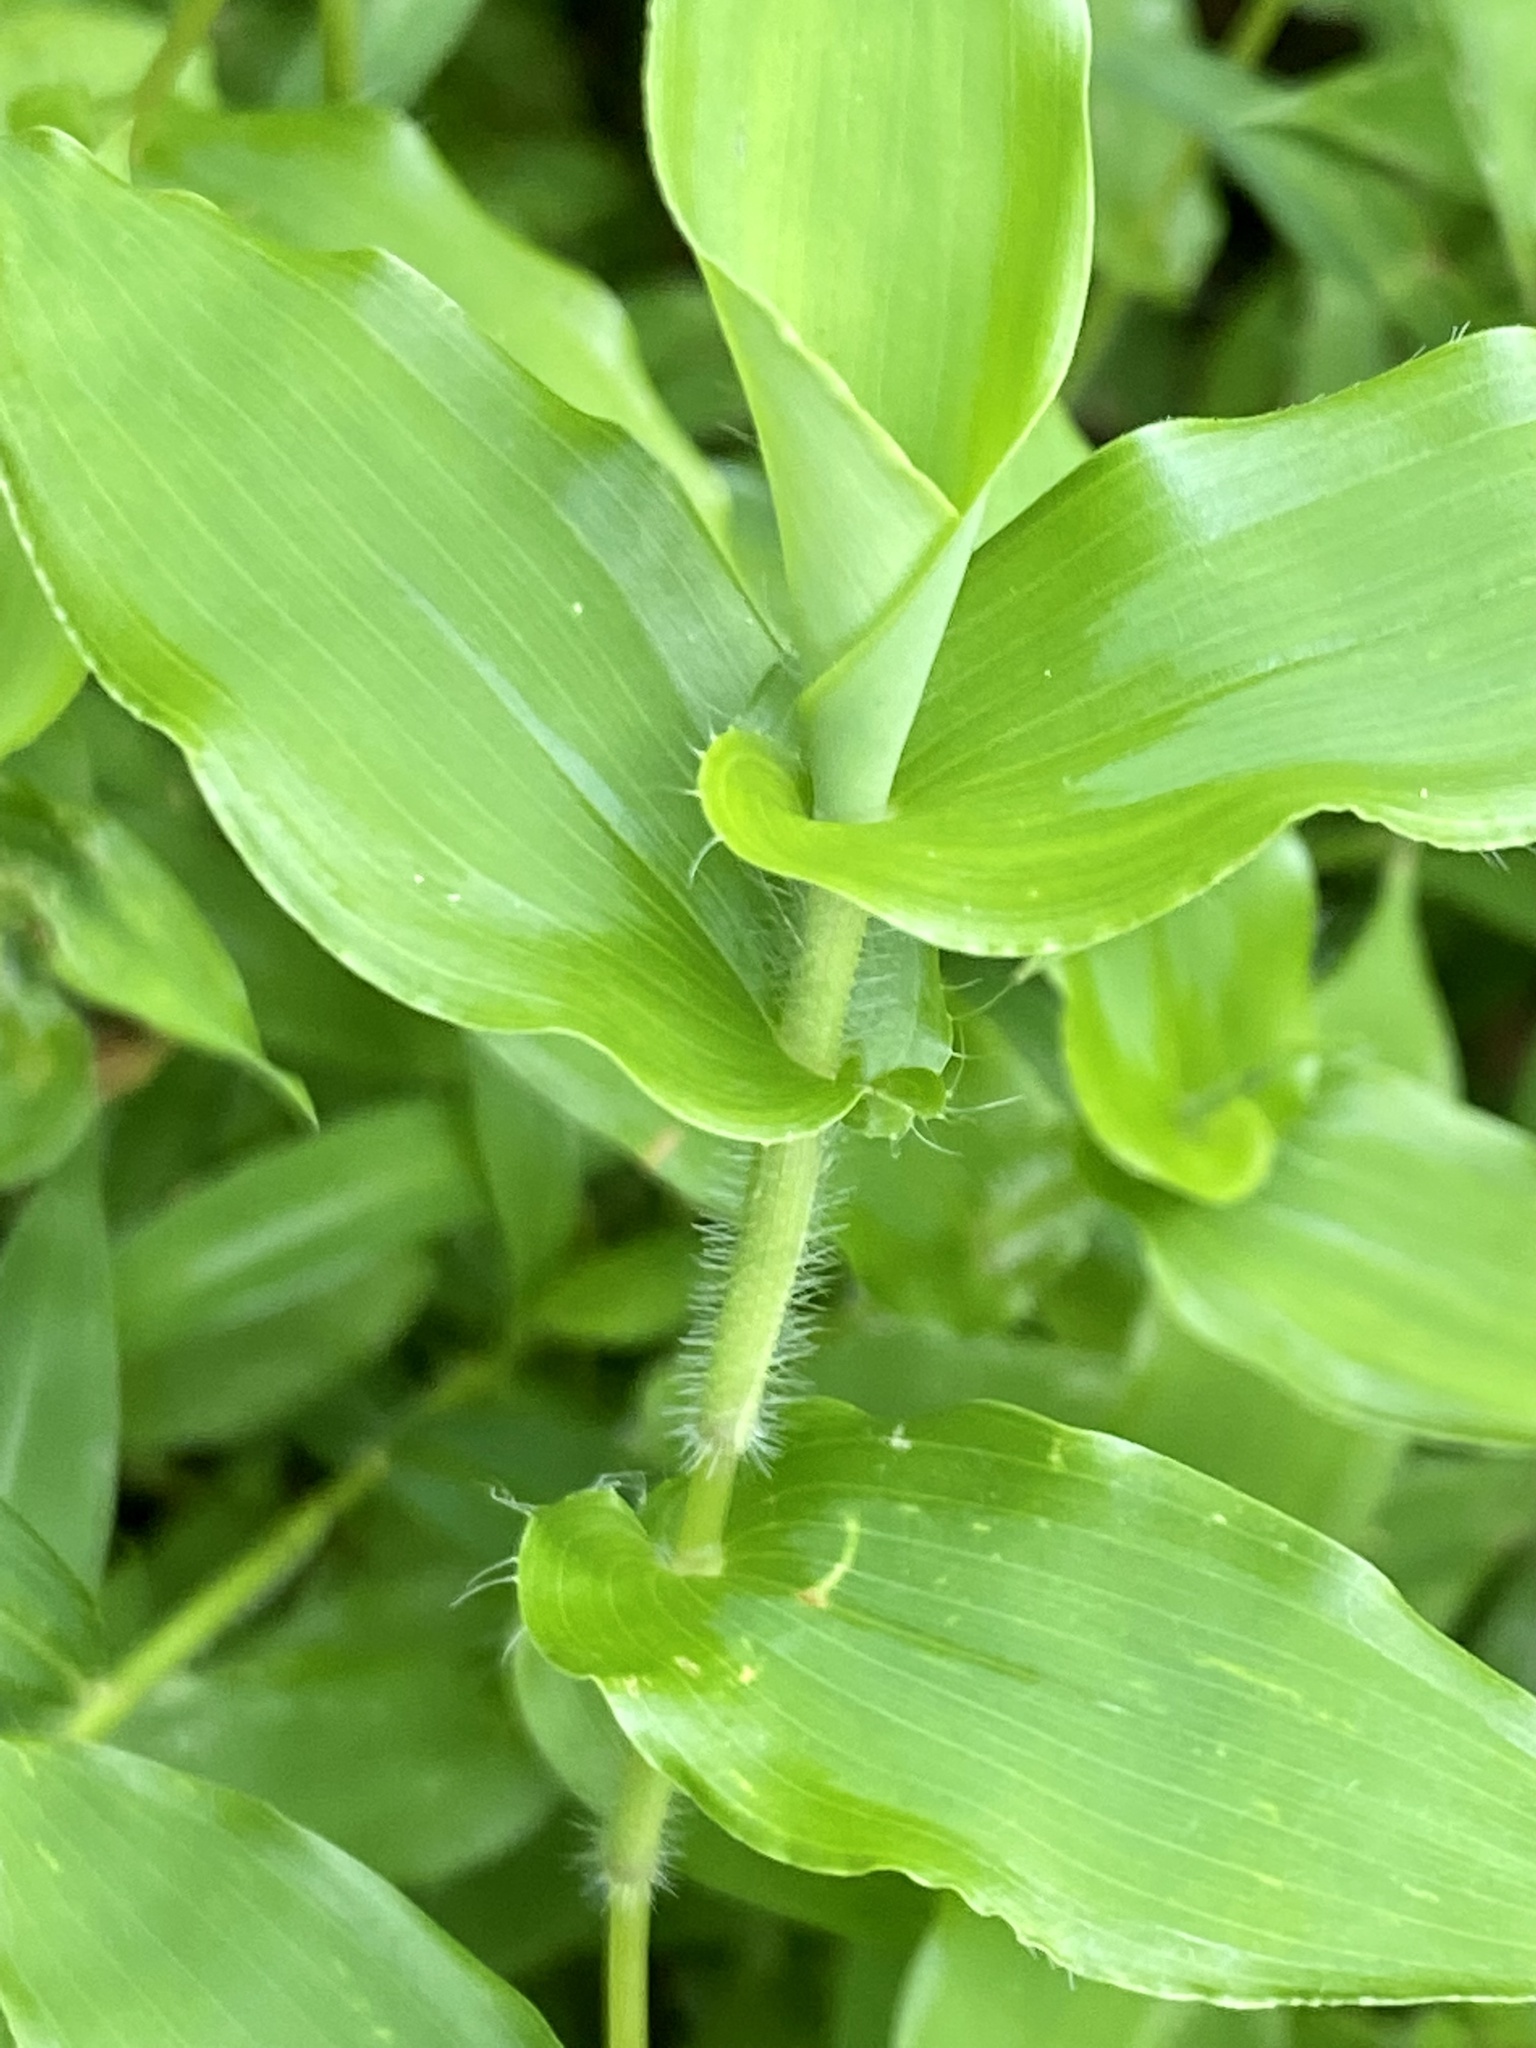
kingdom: Plantae
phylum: Tracheophyta
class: Liliopsida
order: Poales
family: Poaceae
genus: Arthraxon
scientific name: Arthraxon hispidus
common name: Small carpgrass
